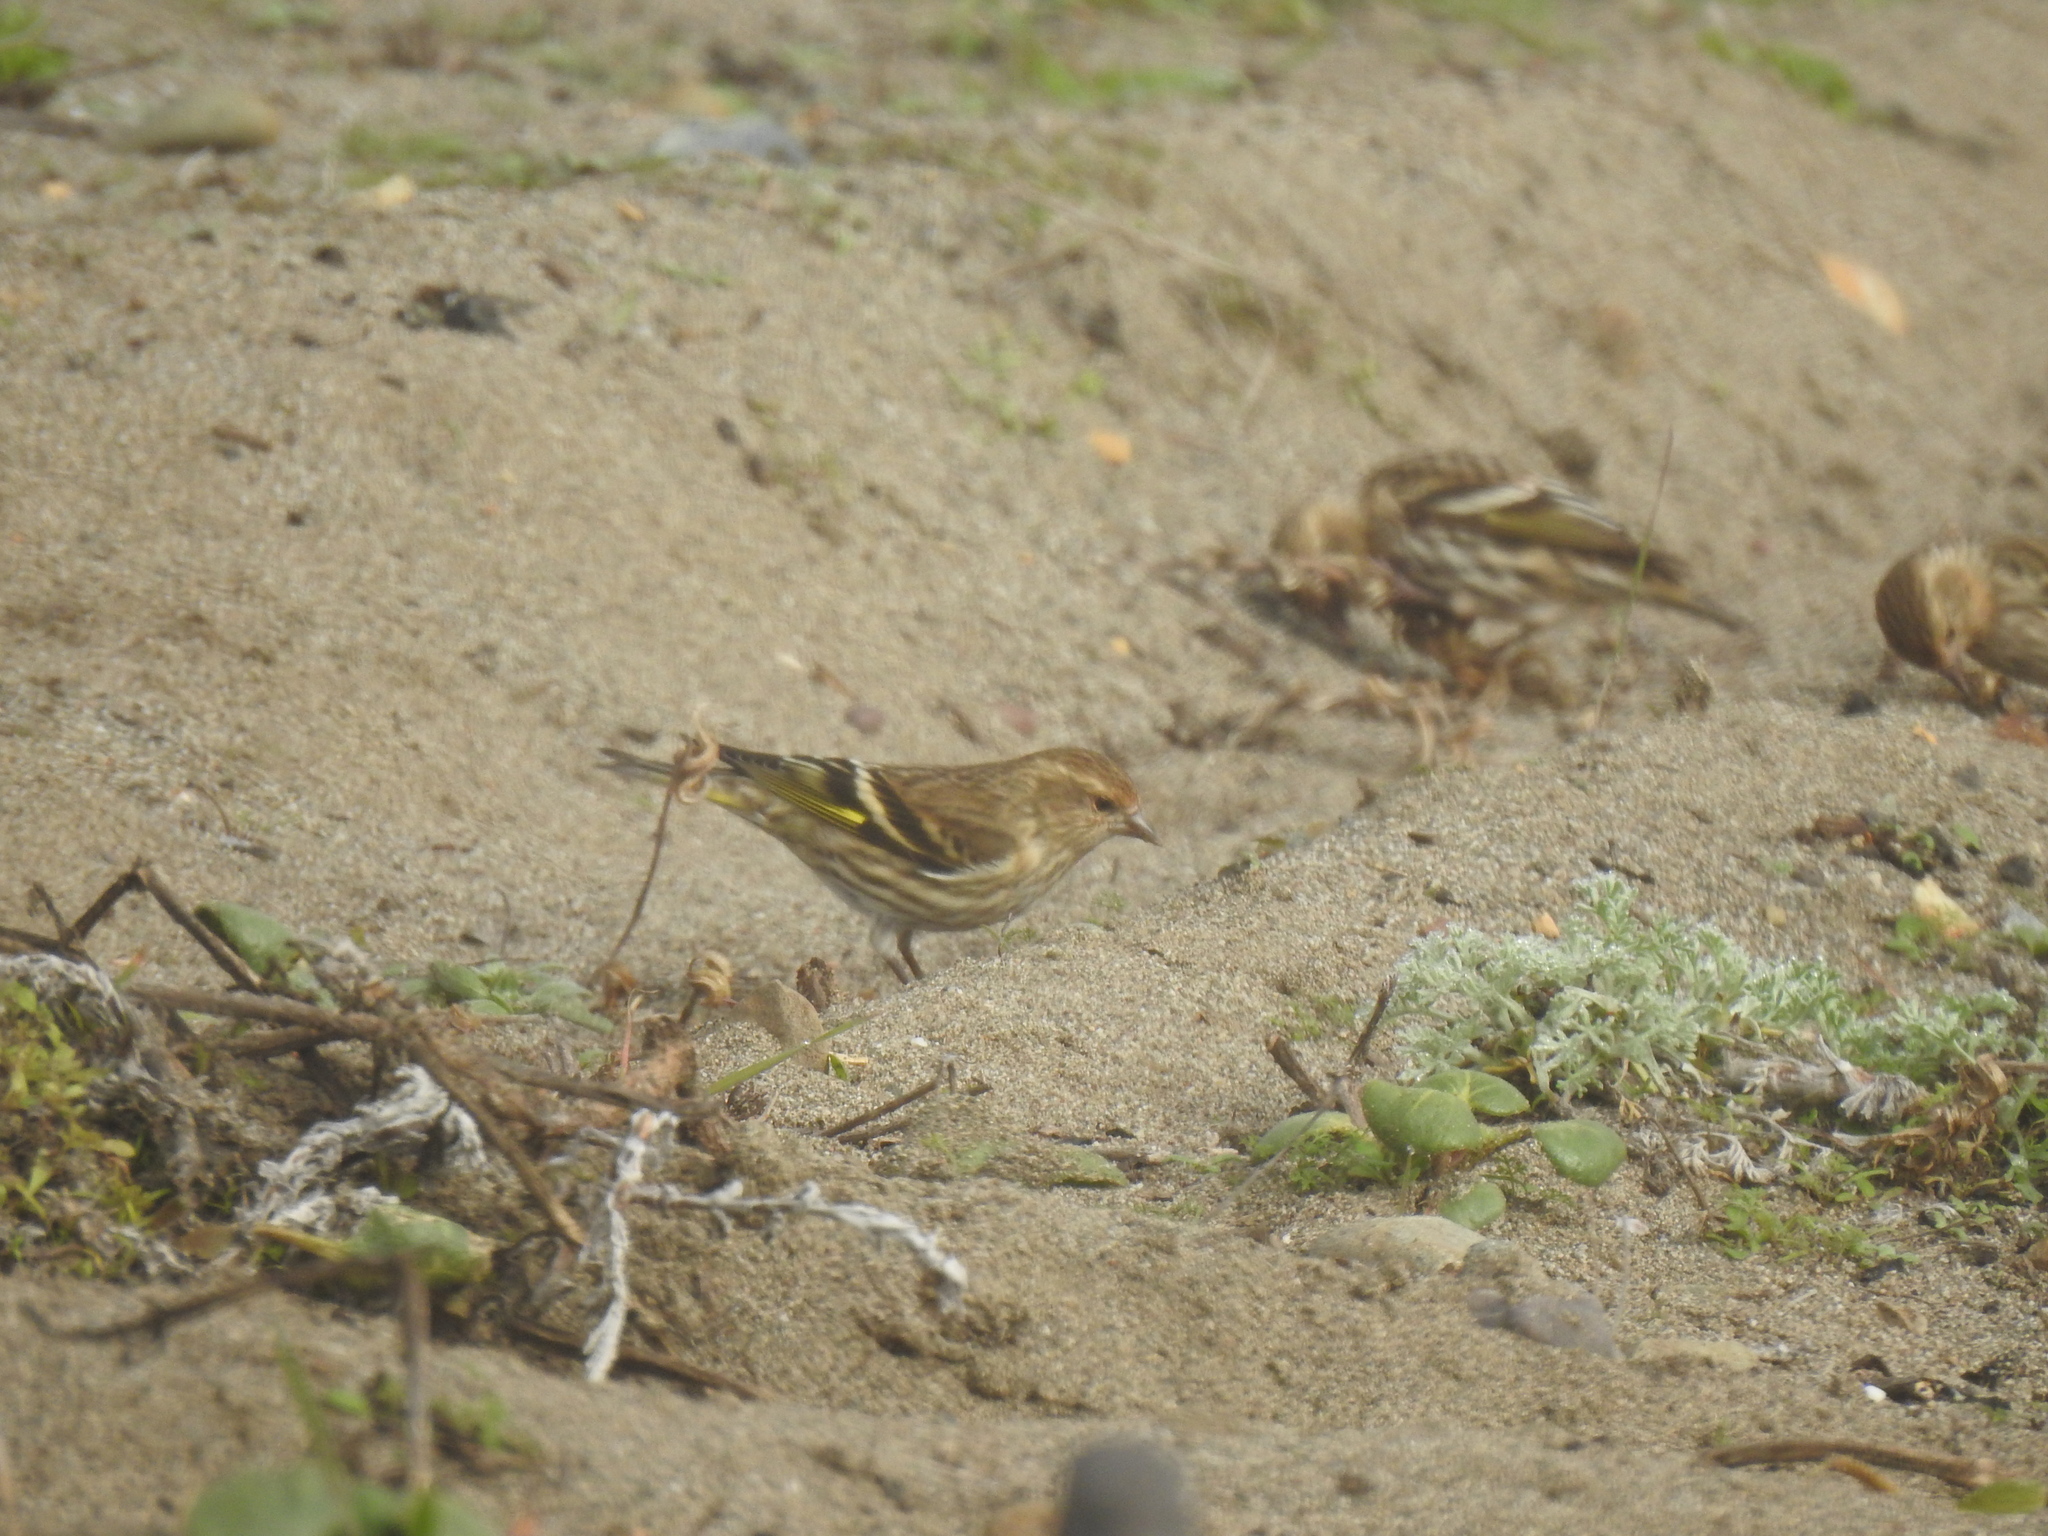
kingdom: Animalia
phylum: Chordata
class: Aves
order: Passeriformes
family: Fringillidae
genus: Spinus
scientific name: Spinus pinus
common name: Pine siskin
